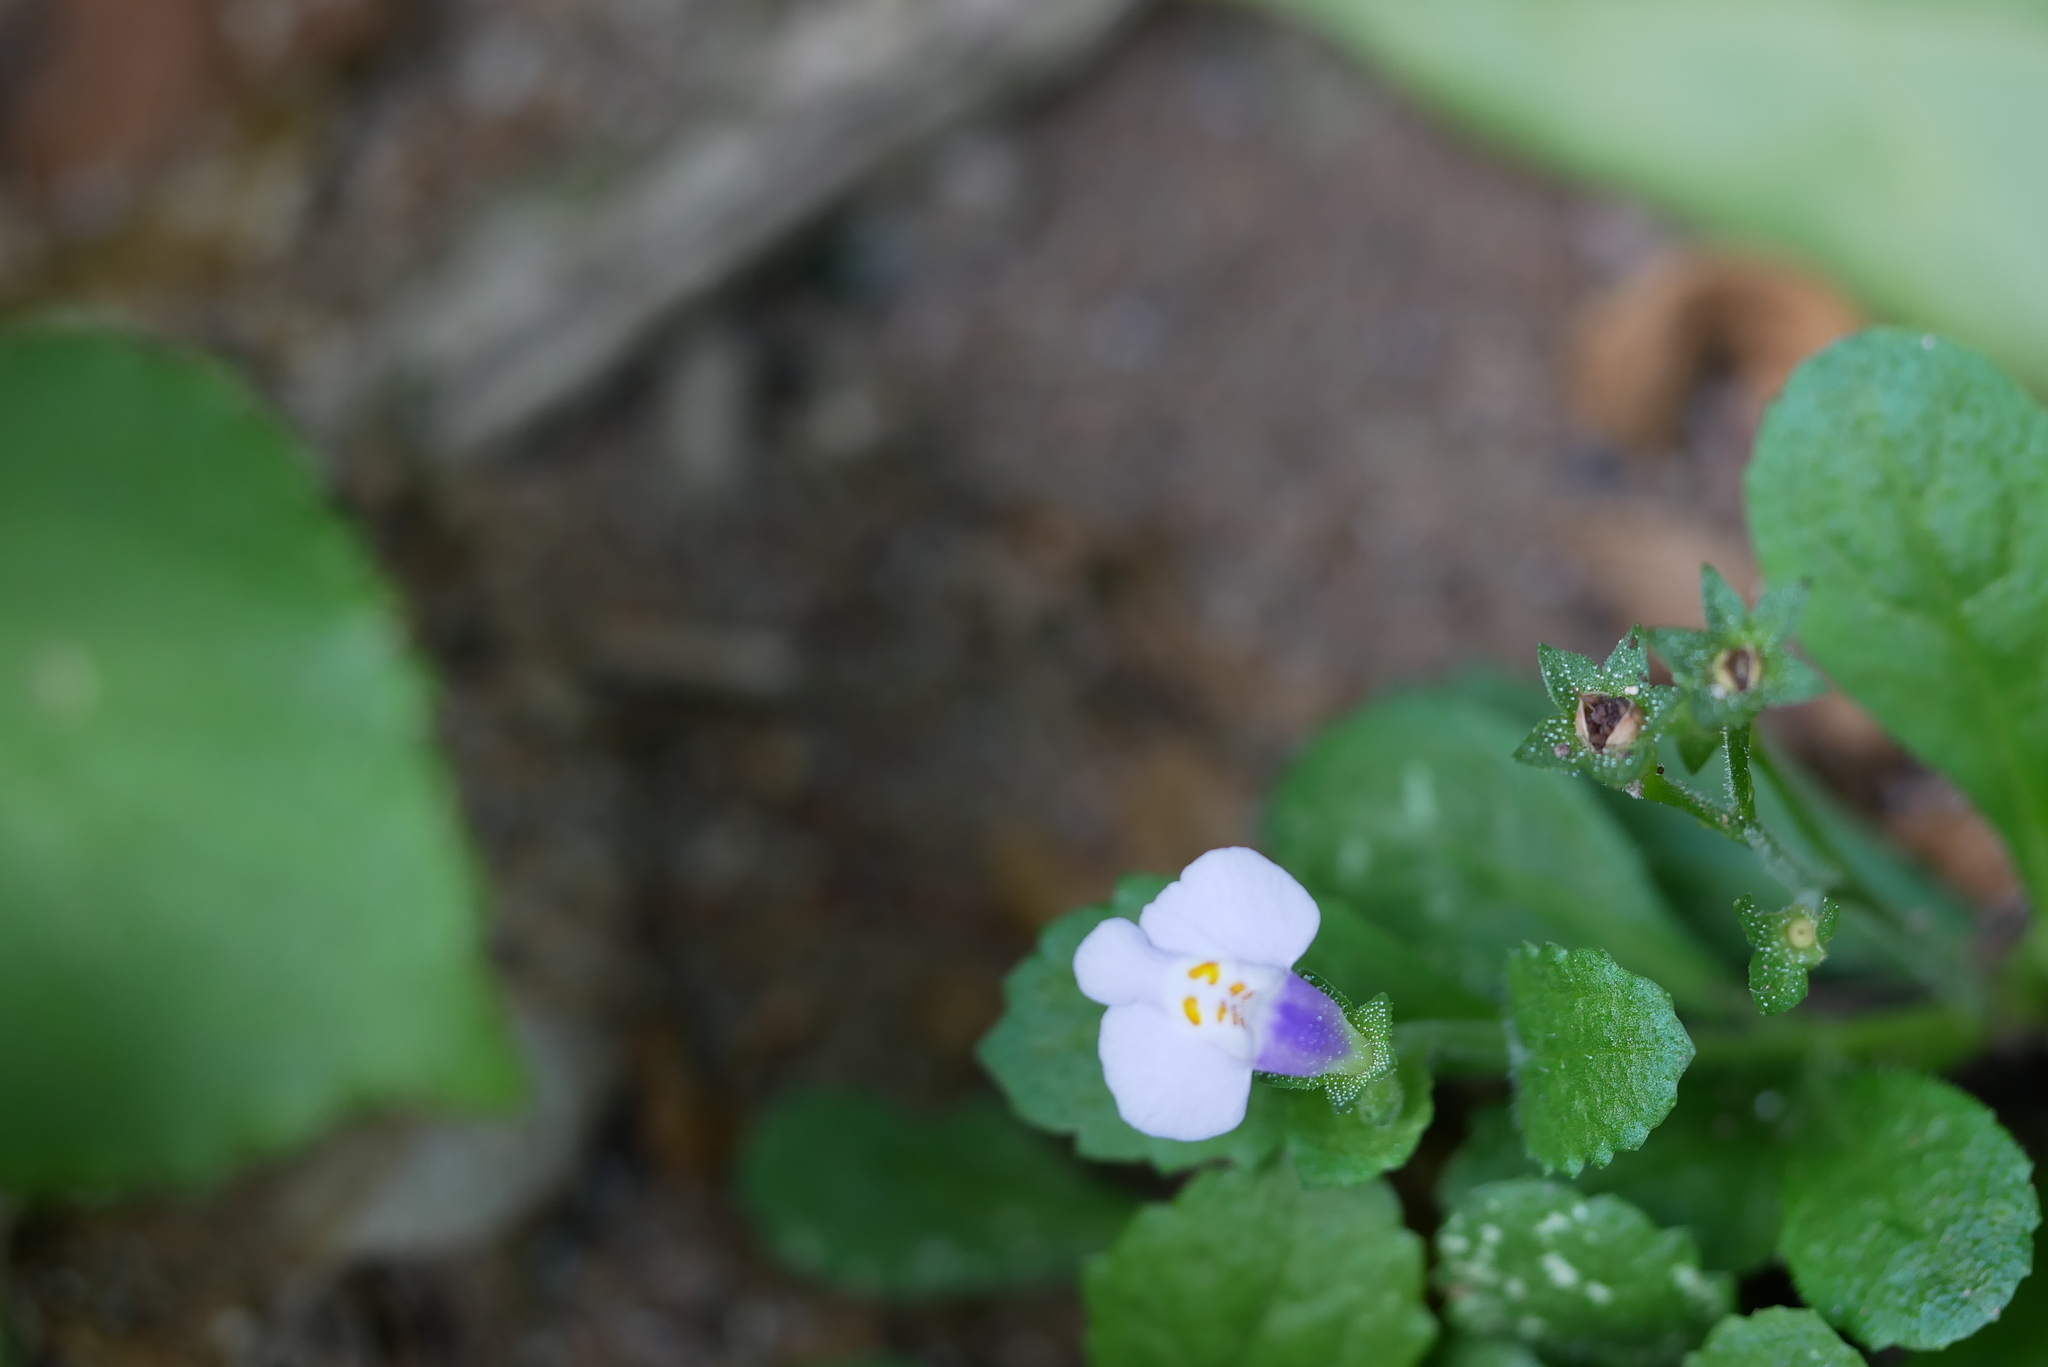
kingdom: Plantae
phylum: Tracheophyta
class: Magnoliopsida
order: Lamiales
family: Mazaceae
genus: Mazus
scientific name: Mazus pumilus
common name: Japanese mazus
